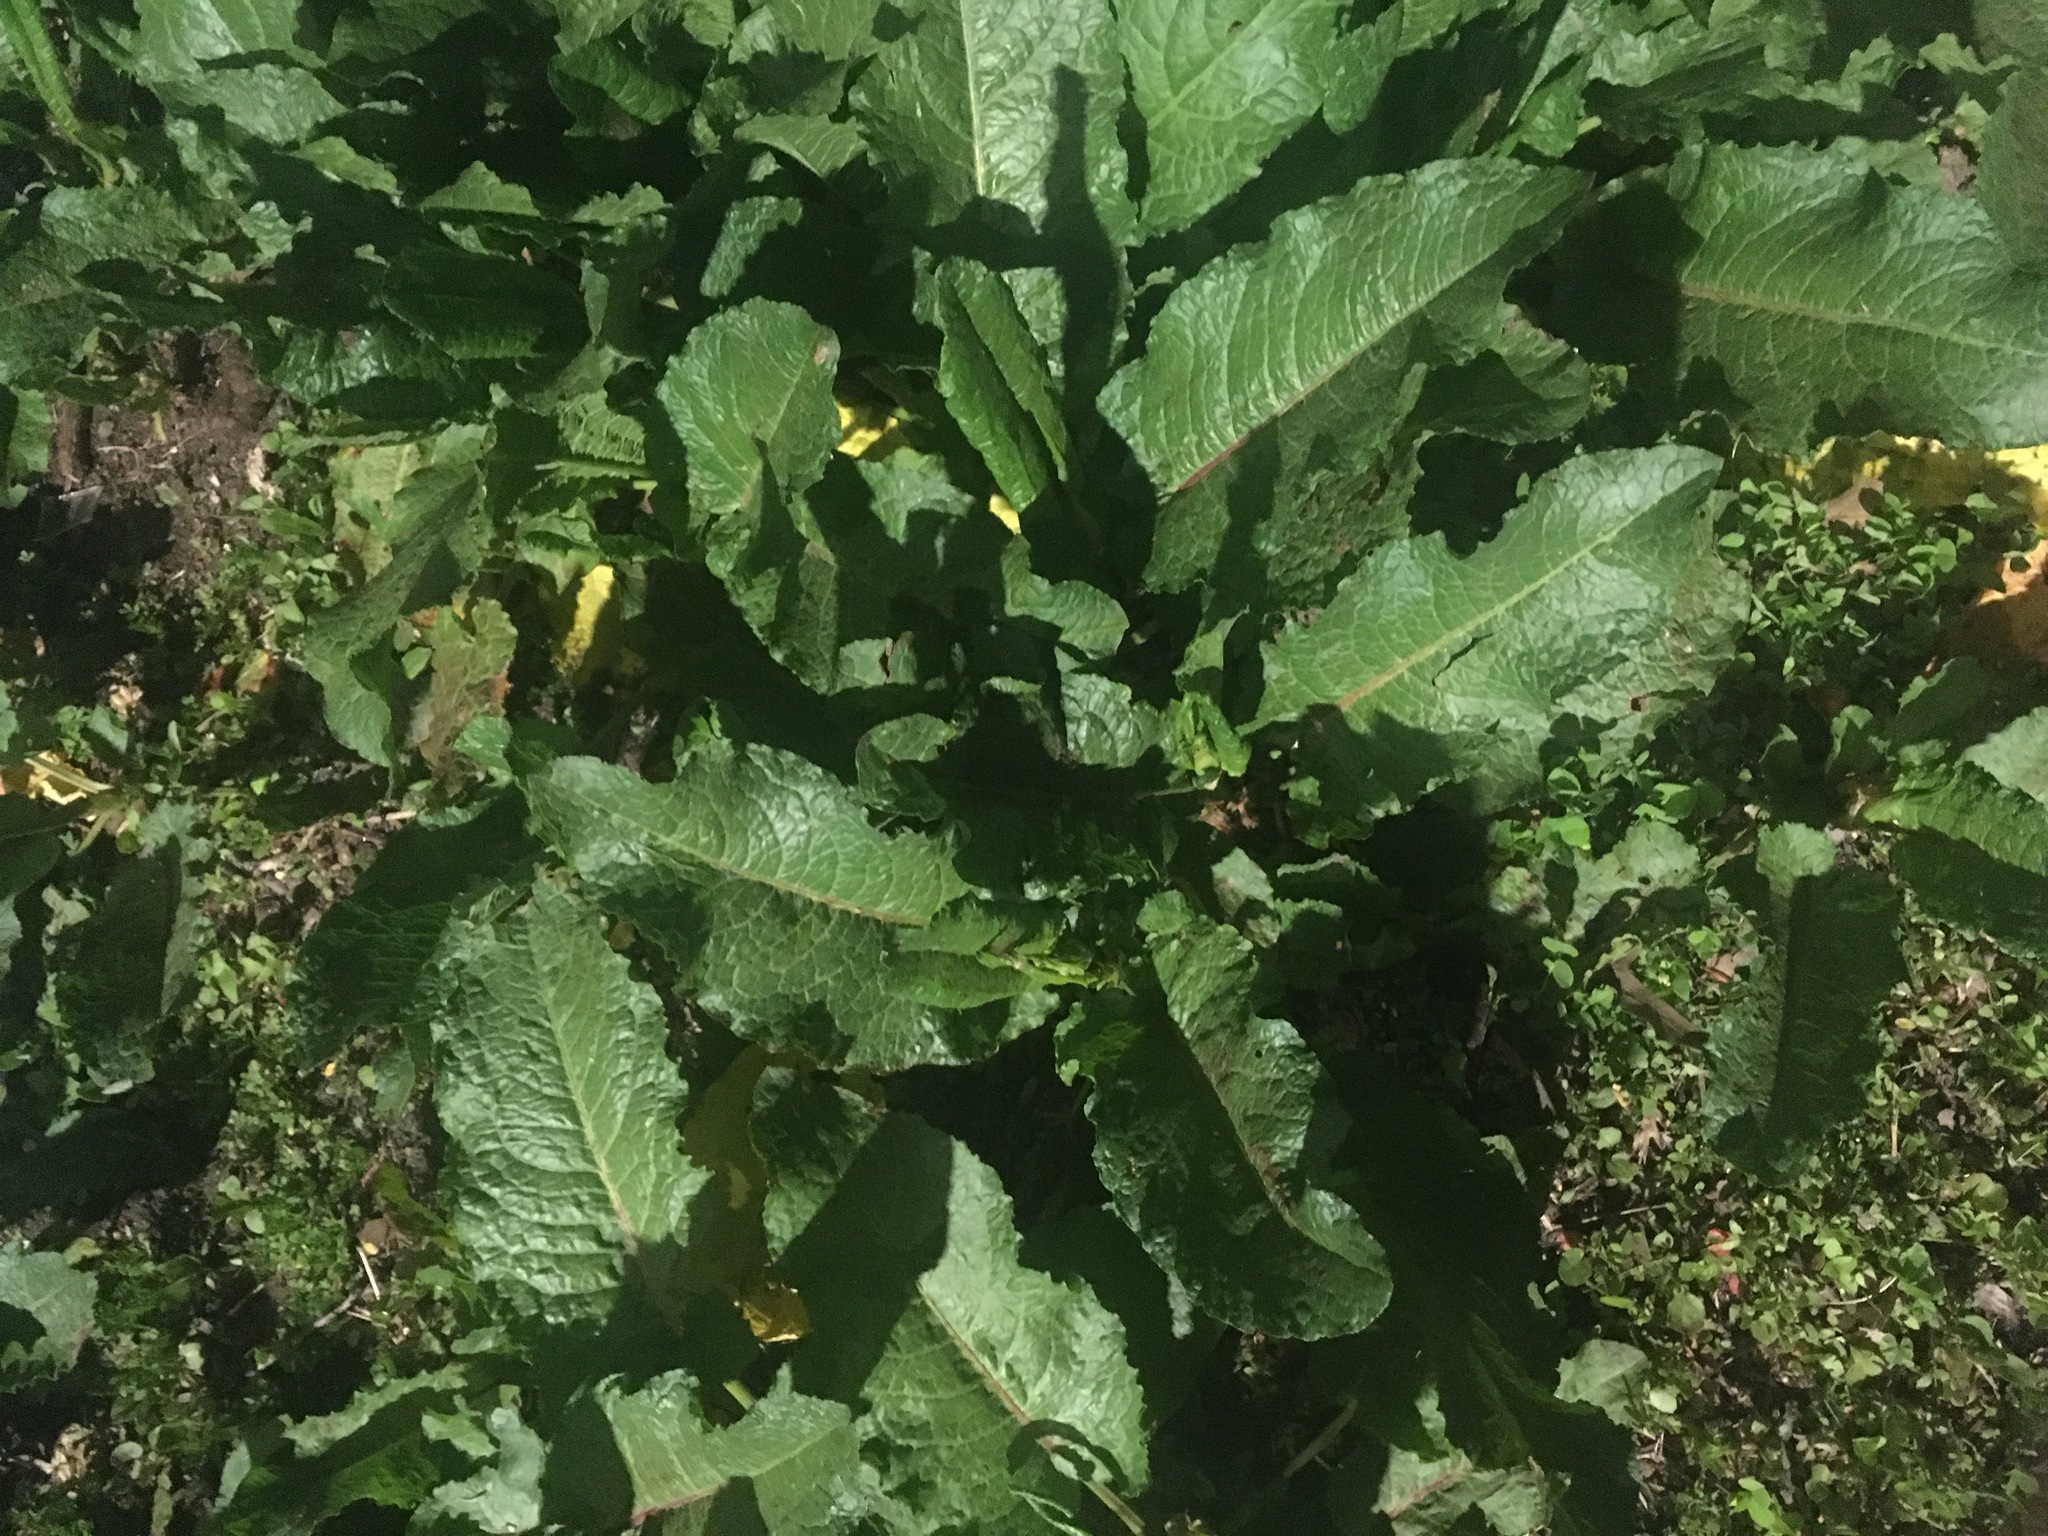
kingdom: Plantae
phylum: Tracheophyta
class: Magnoliopsida
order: Caryophyllales
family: Polygonaceae
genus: Rumex
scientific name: Rumex obtusifolius
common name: Bitter dock
